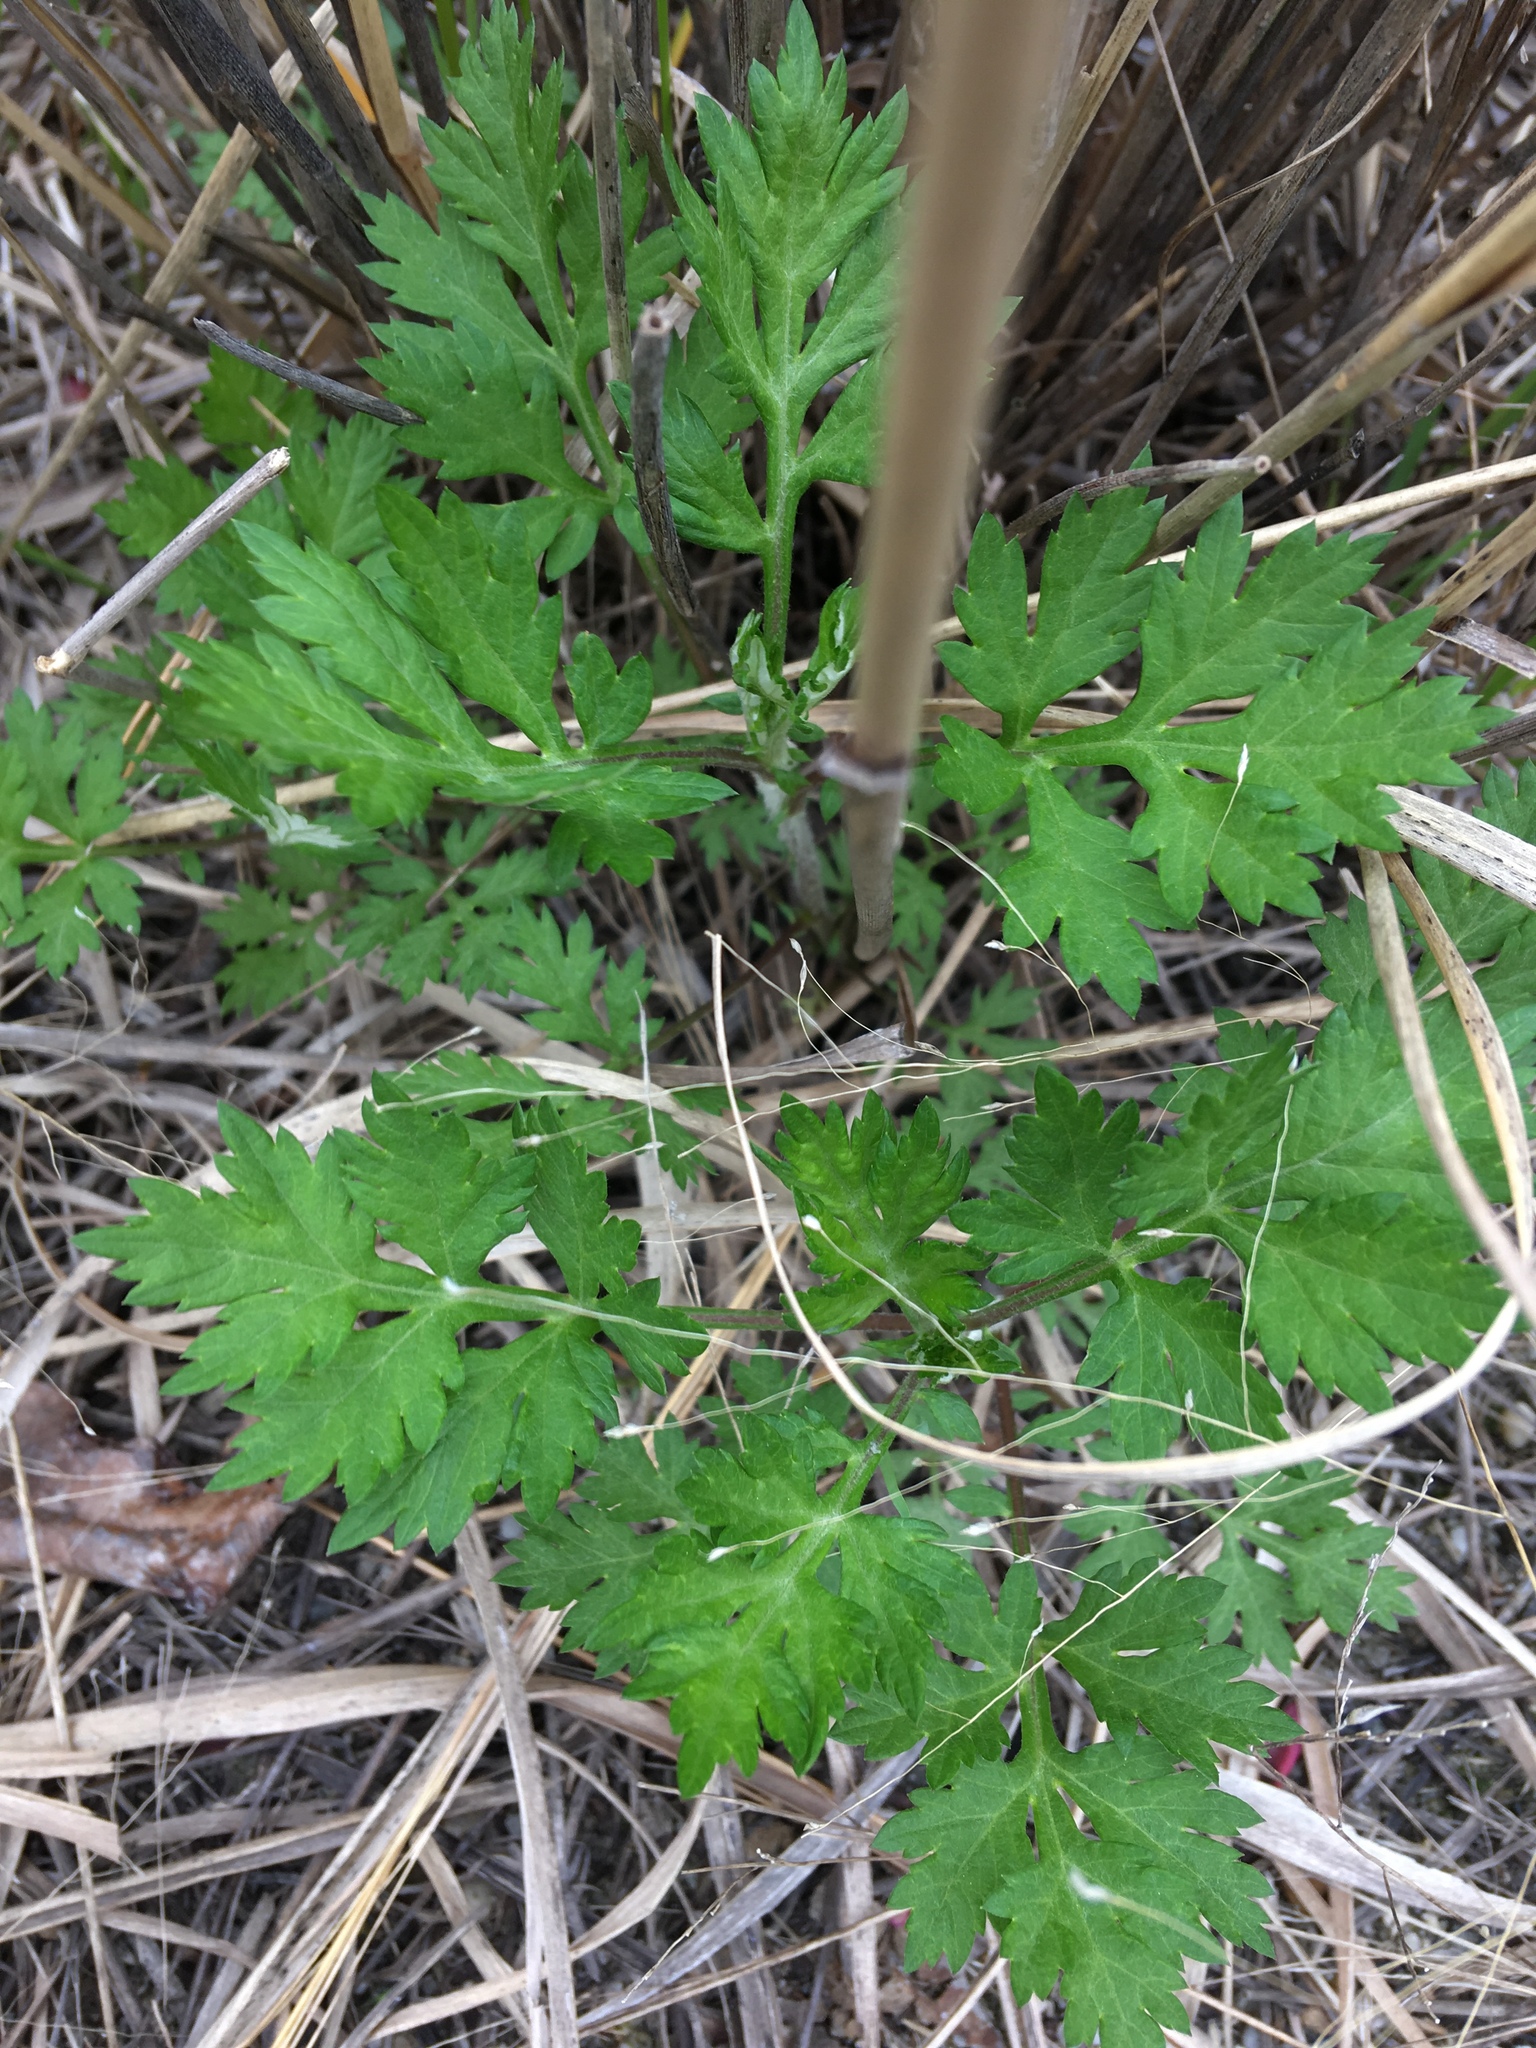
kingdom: Plantae
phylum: Tracheophyta
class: Magnoliopsida
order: Asterales
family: Asteraceae
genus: Artemisia
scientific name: Artemisia vulgaris
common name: Mugwort
